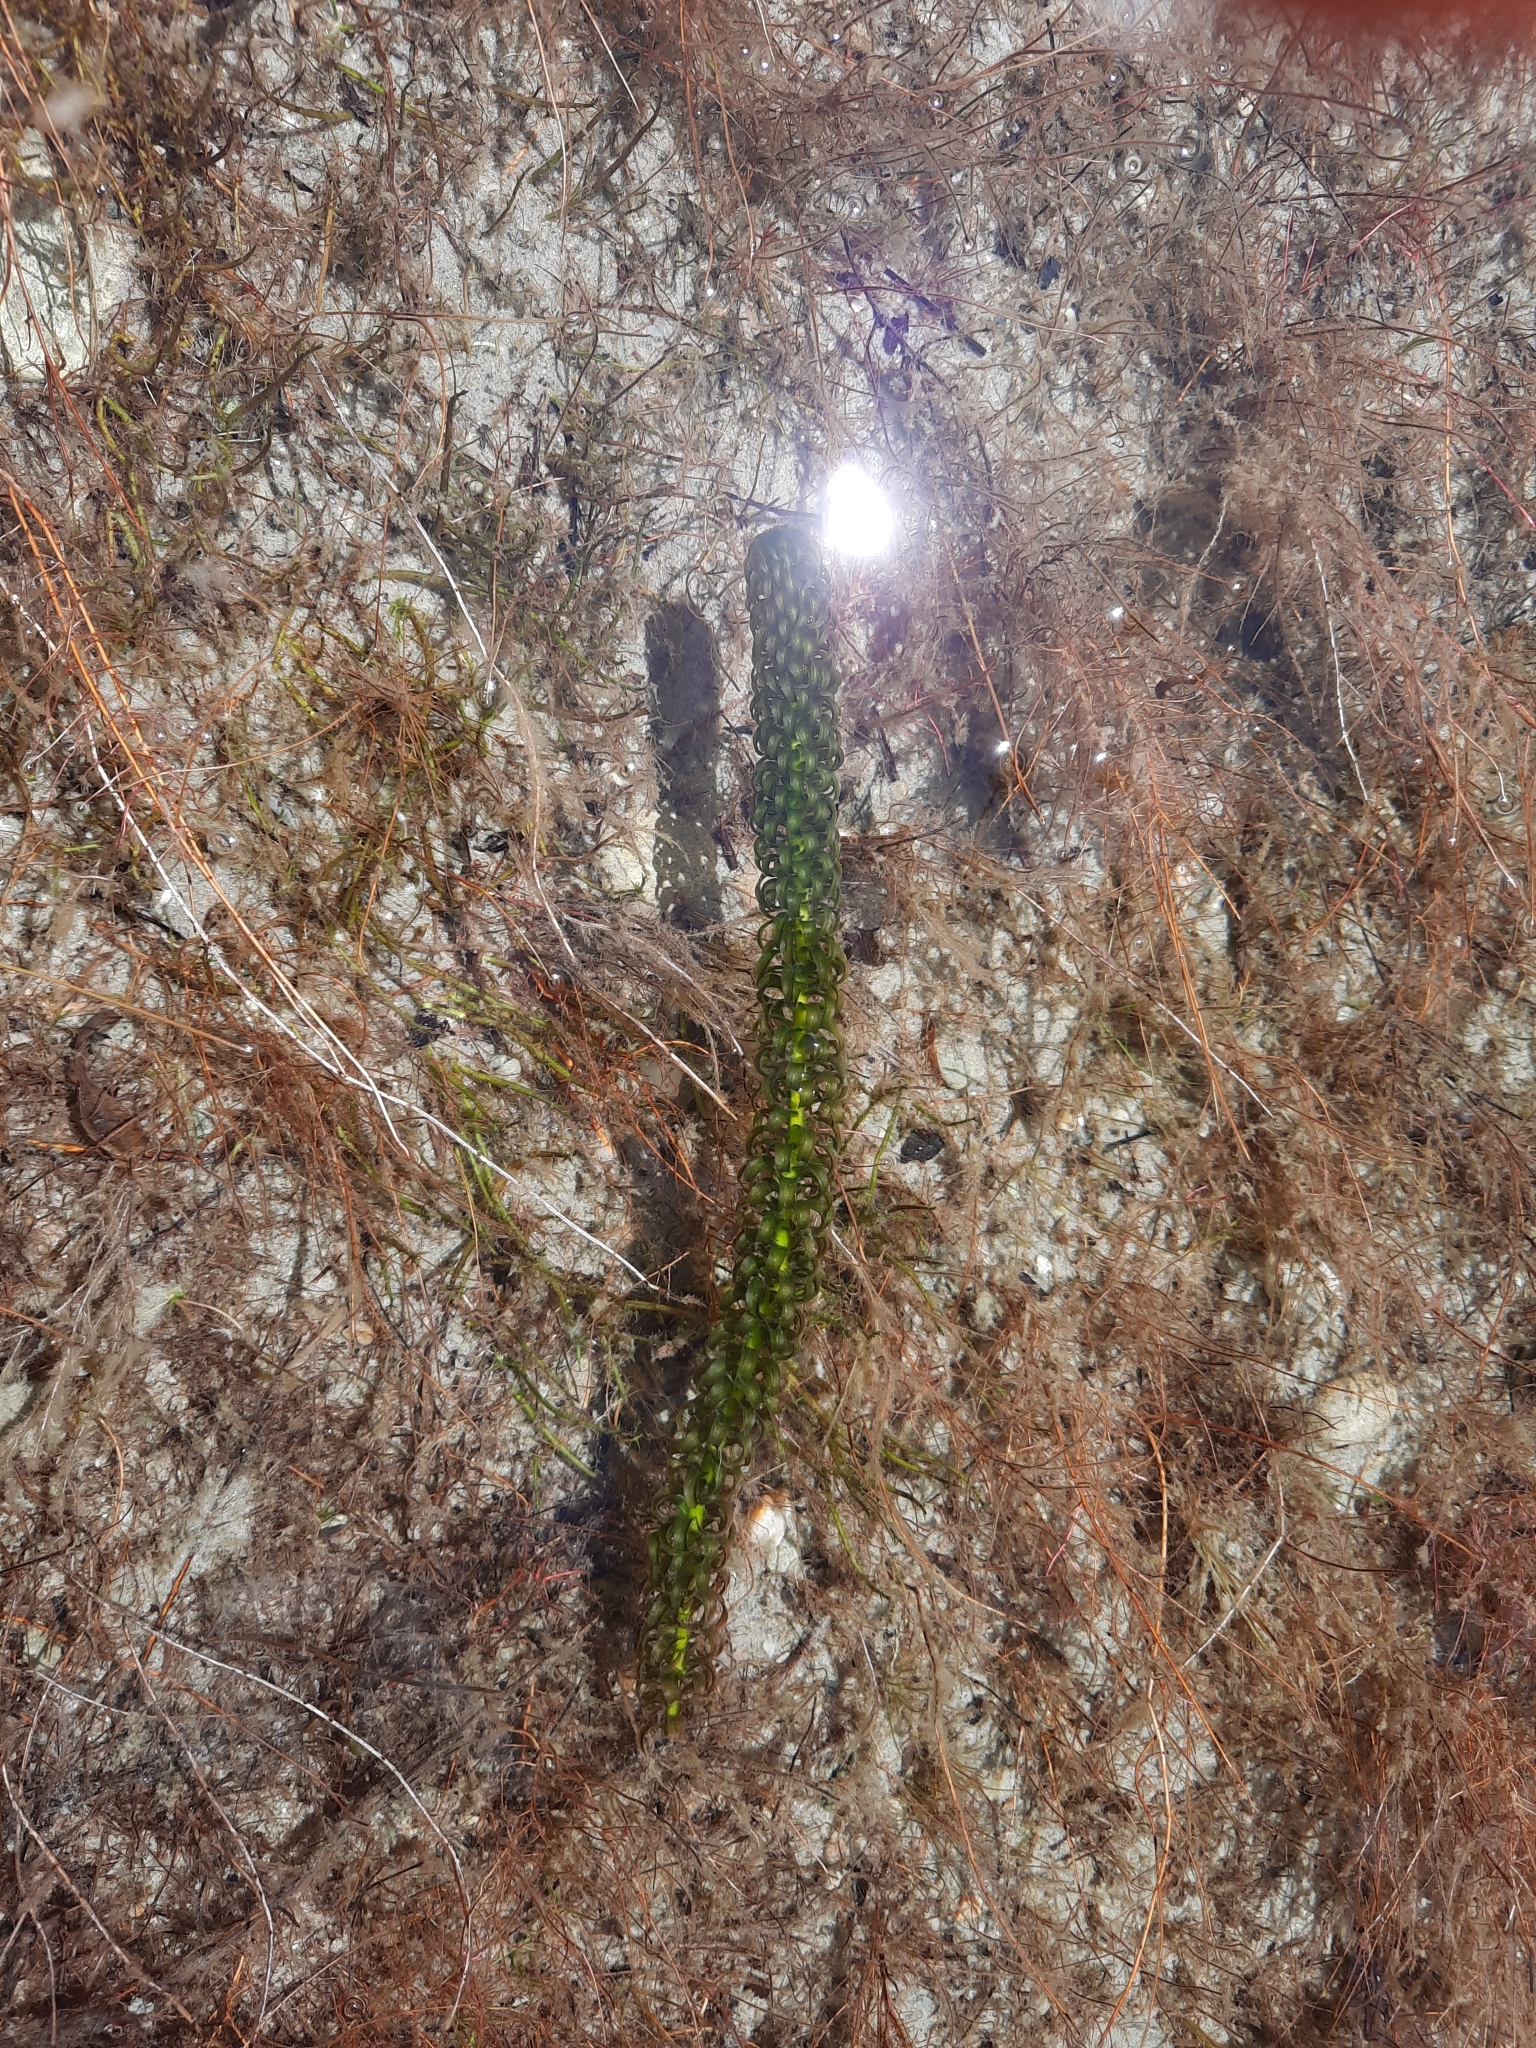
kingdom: Plantae
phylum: Tracheophyta
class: Liliopsida
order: Alismatales
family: Hydrocharitaceae
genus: Lagarosiphon
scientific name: Lagarosiphon major
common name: Curly waterweed
